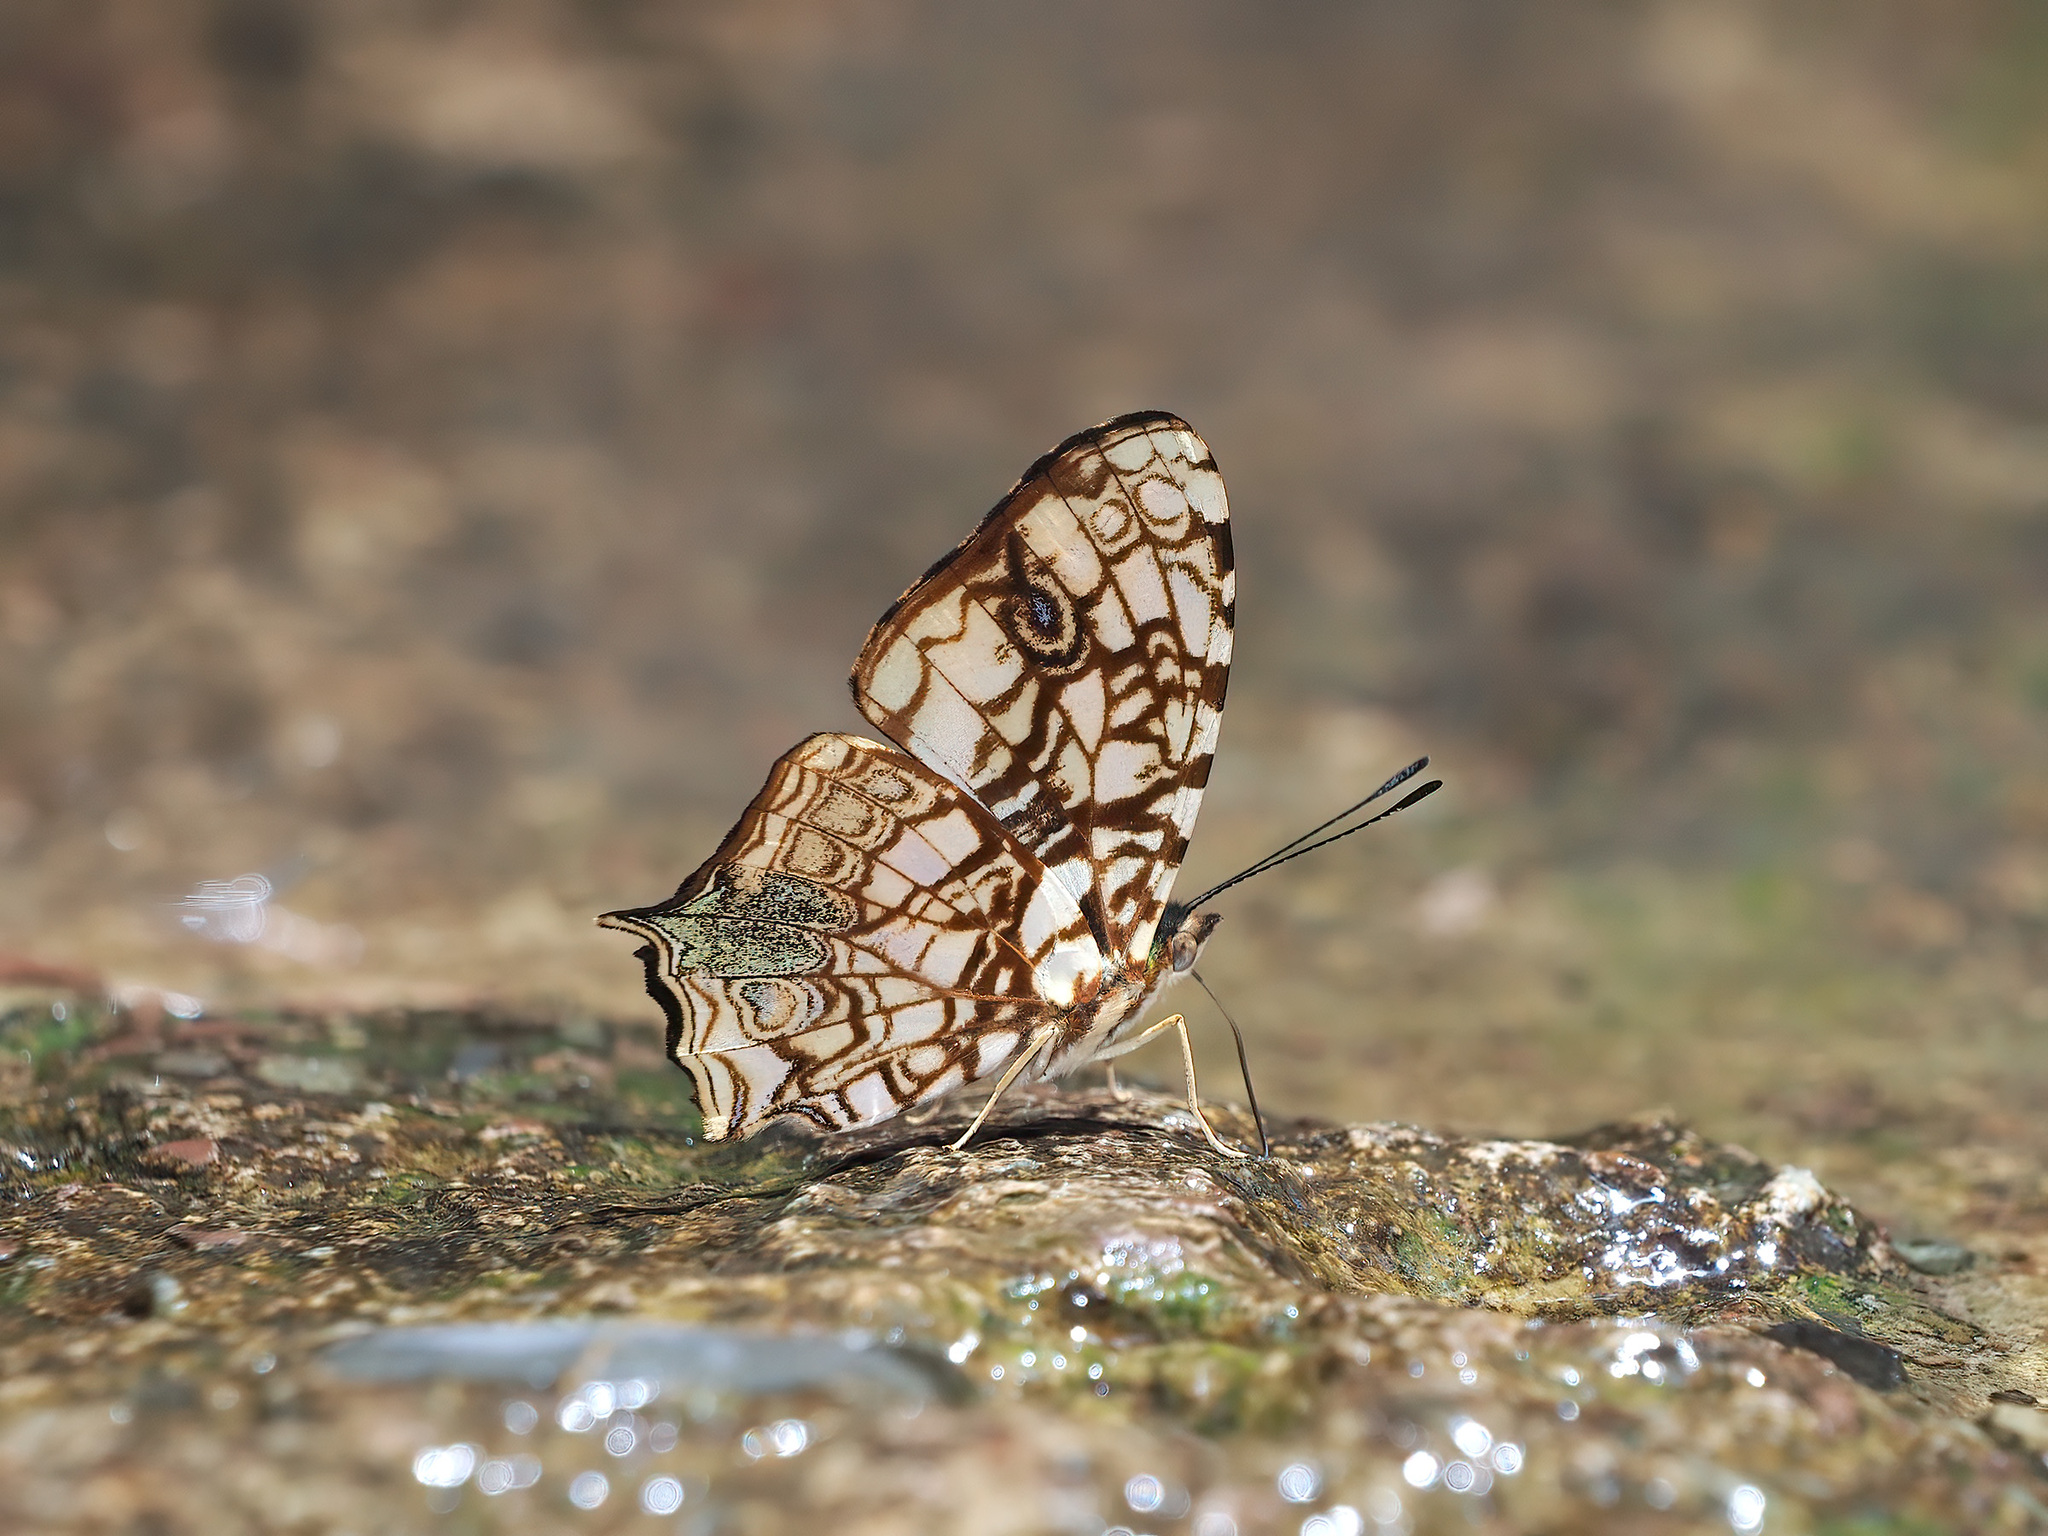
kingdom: Animalia
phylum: Arthropoda
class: Insecta
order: Lepidoptera
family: Nymphalidae
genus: Symbrenthia
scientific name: Symbrenthia hypatia
